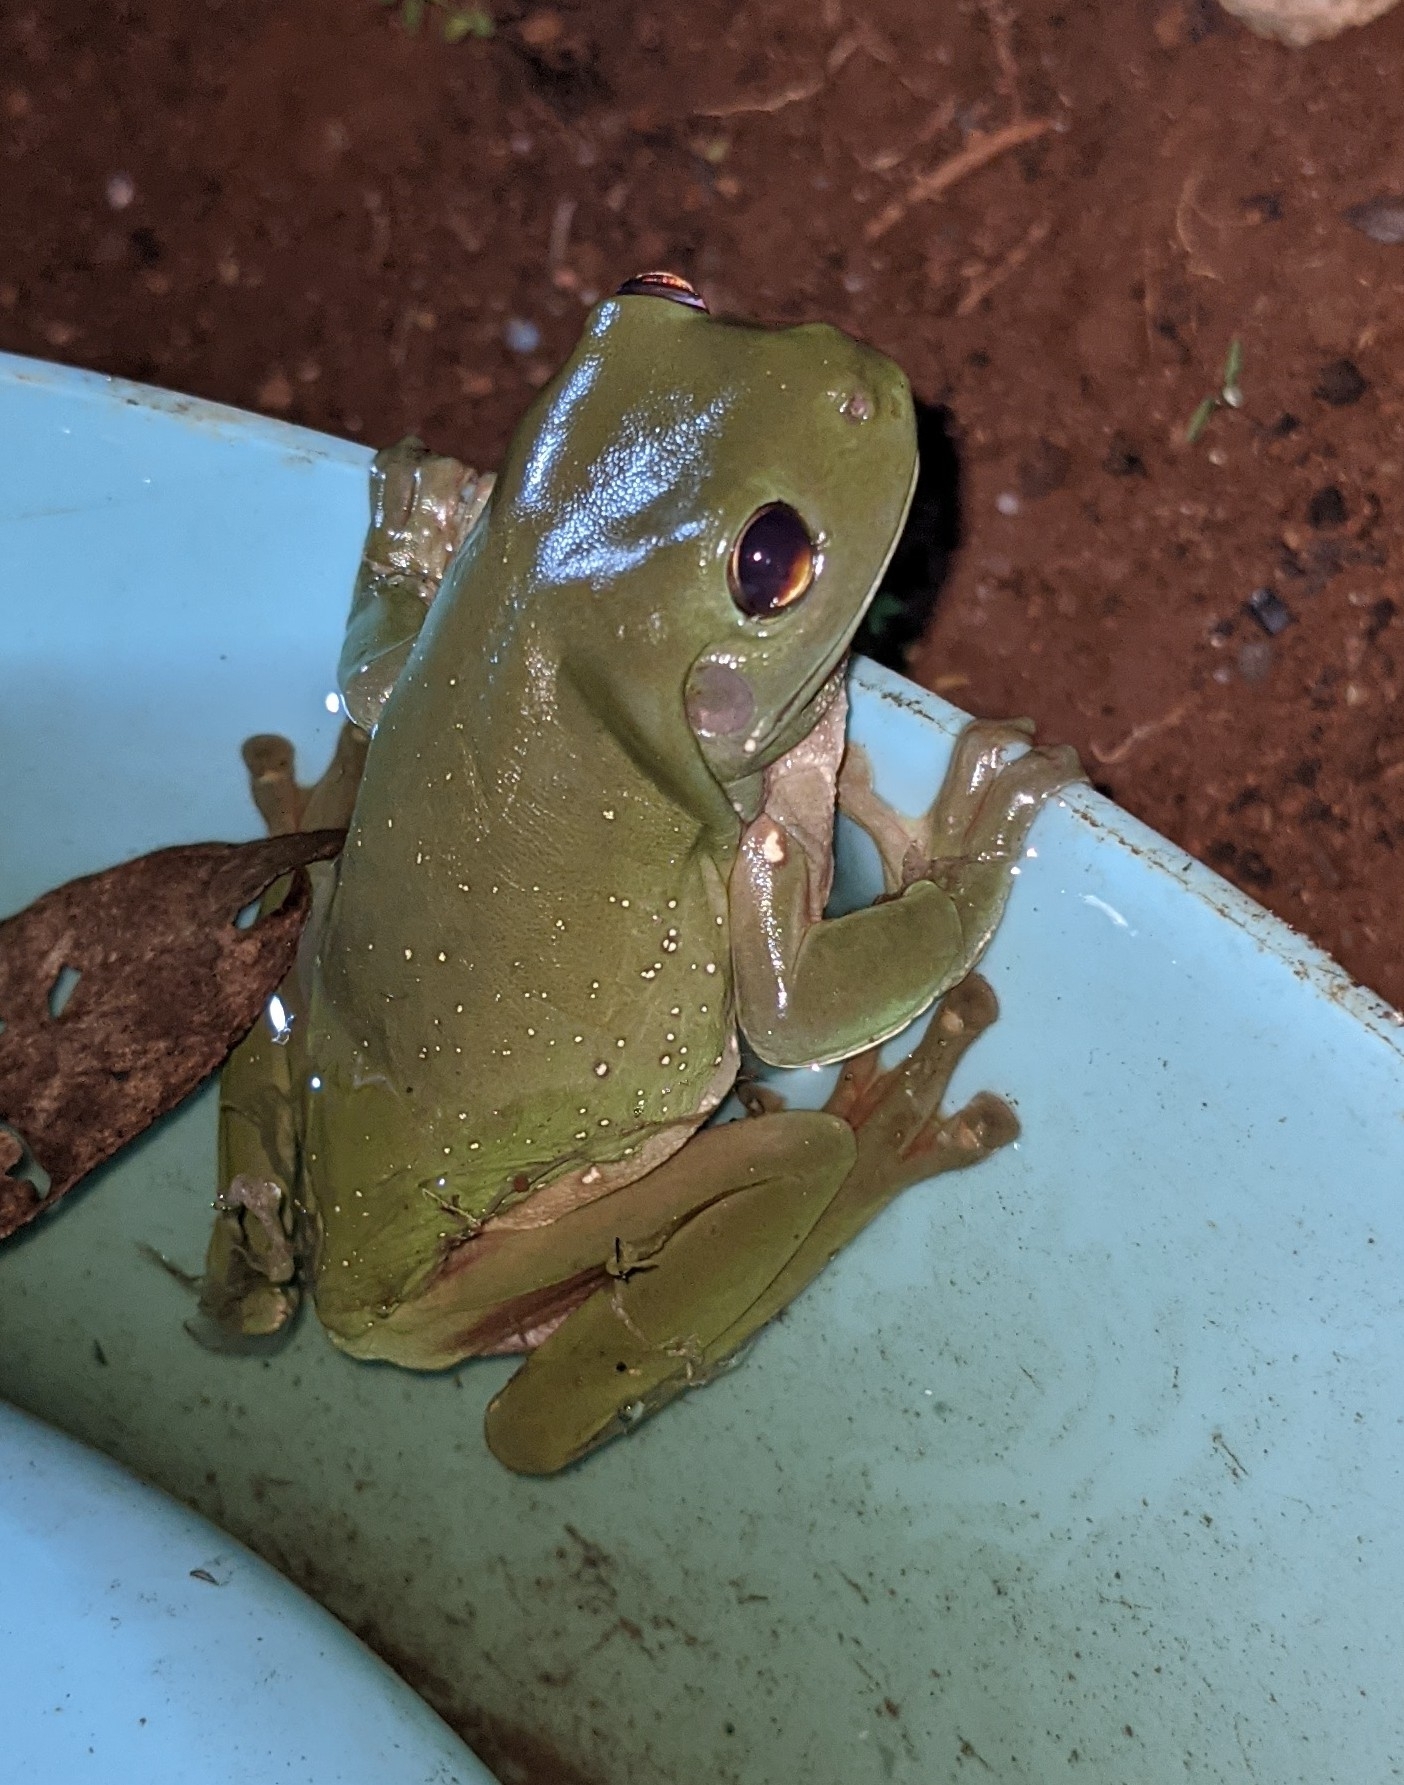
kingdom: Animalia
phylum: Chordata
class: Amphibia
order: Anura
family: Pelodryadidae
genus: Ranoidea
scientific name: Ranoidea caerulea
